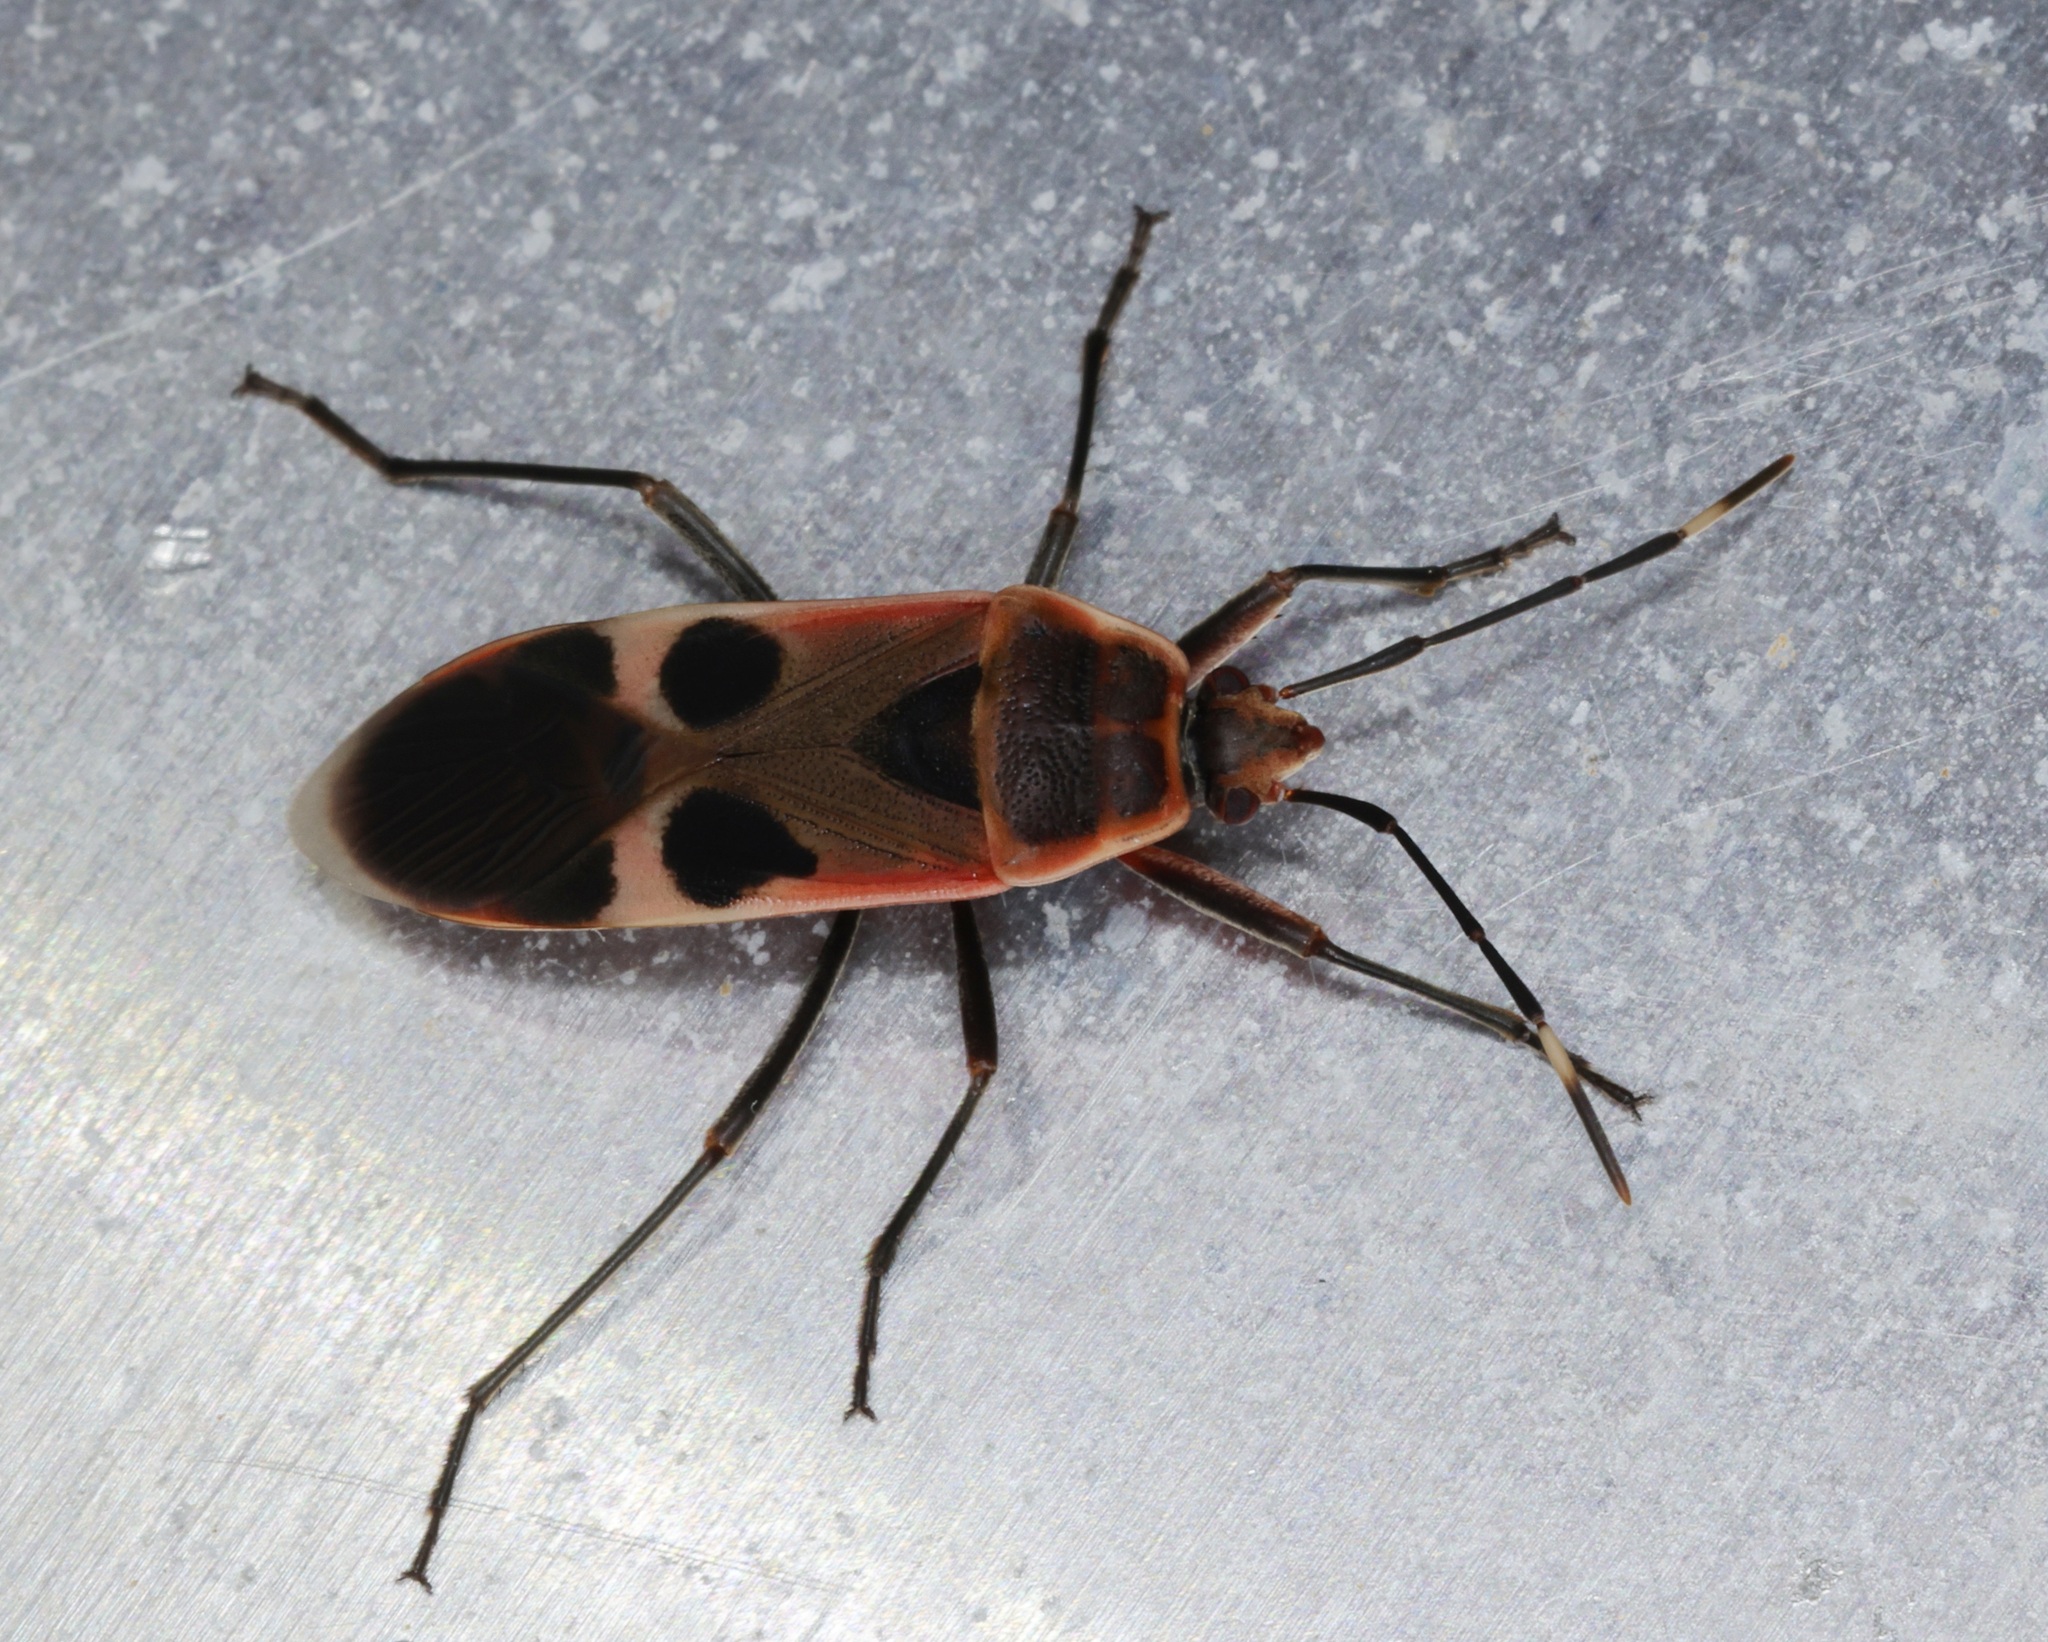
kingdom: Animalia
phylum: Arthropoda
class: Insecta
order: Hemiptera
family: Largidae
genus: Physopelta
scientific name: Physopelta gutta
